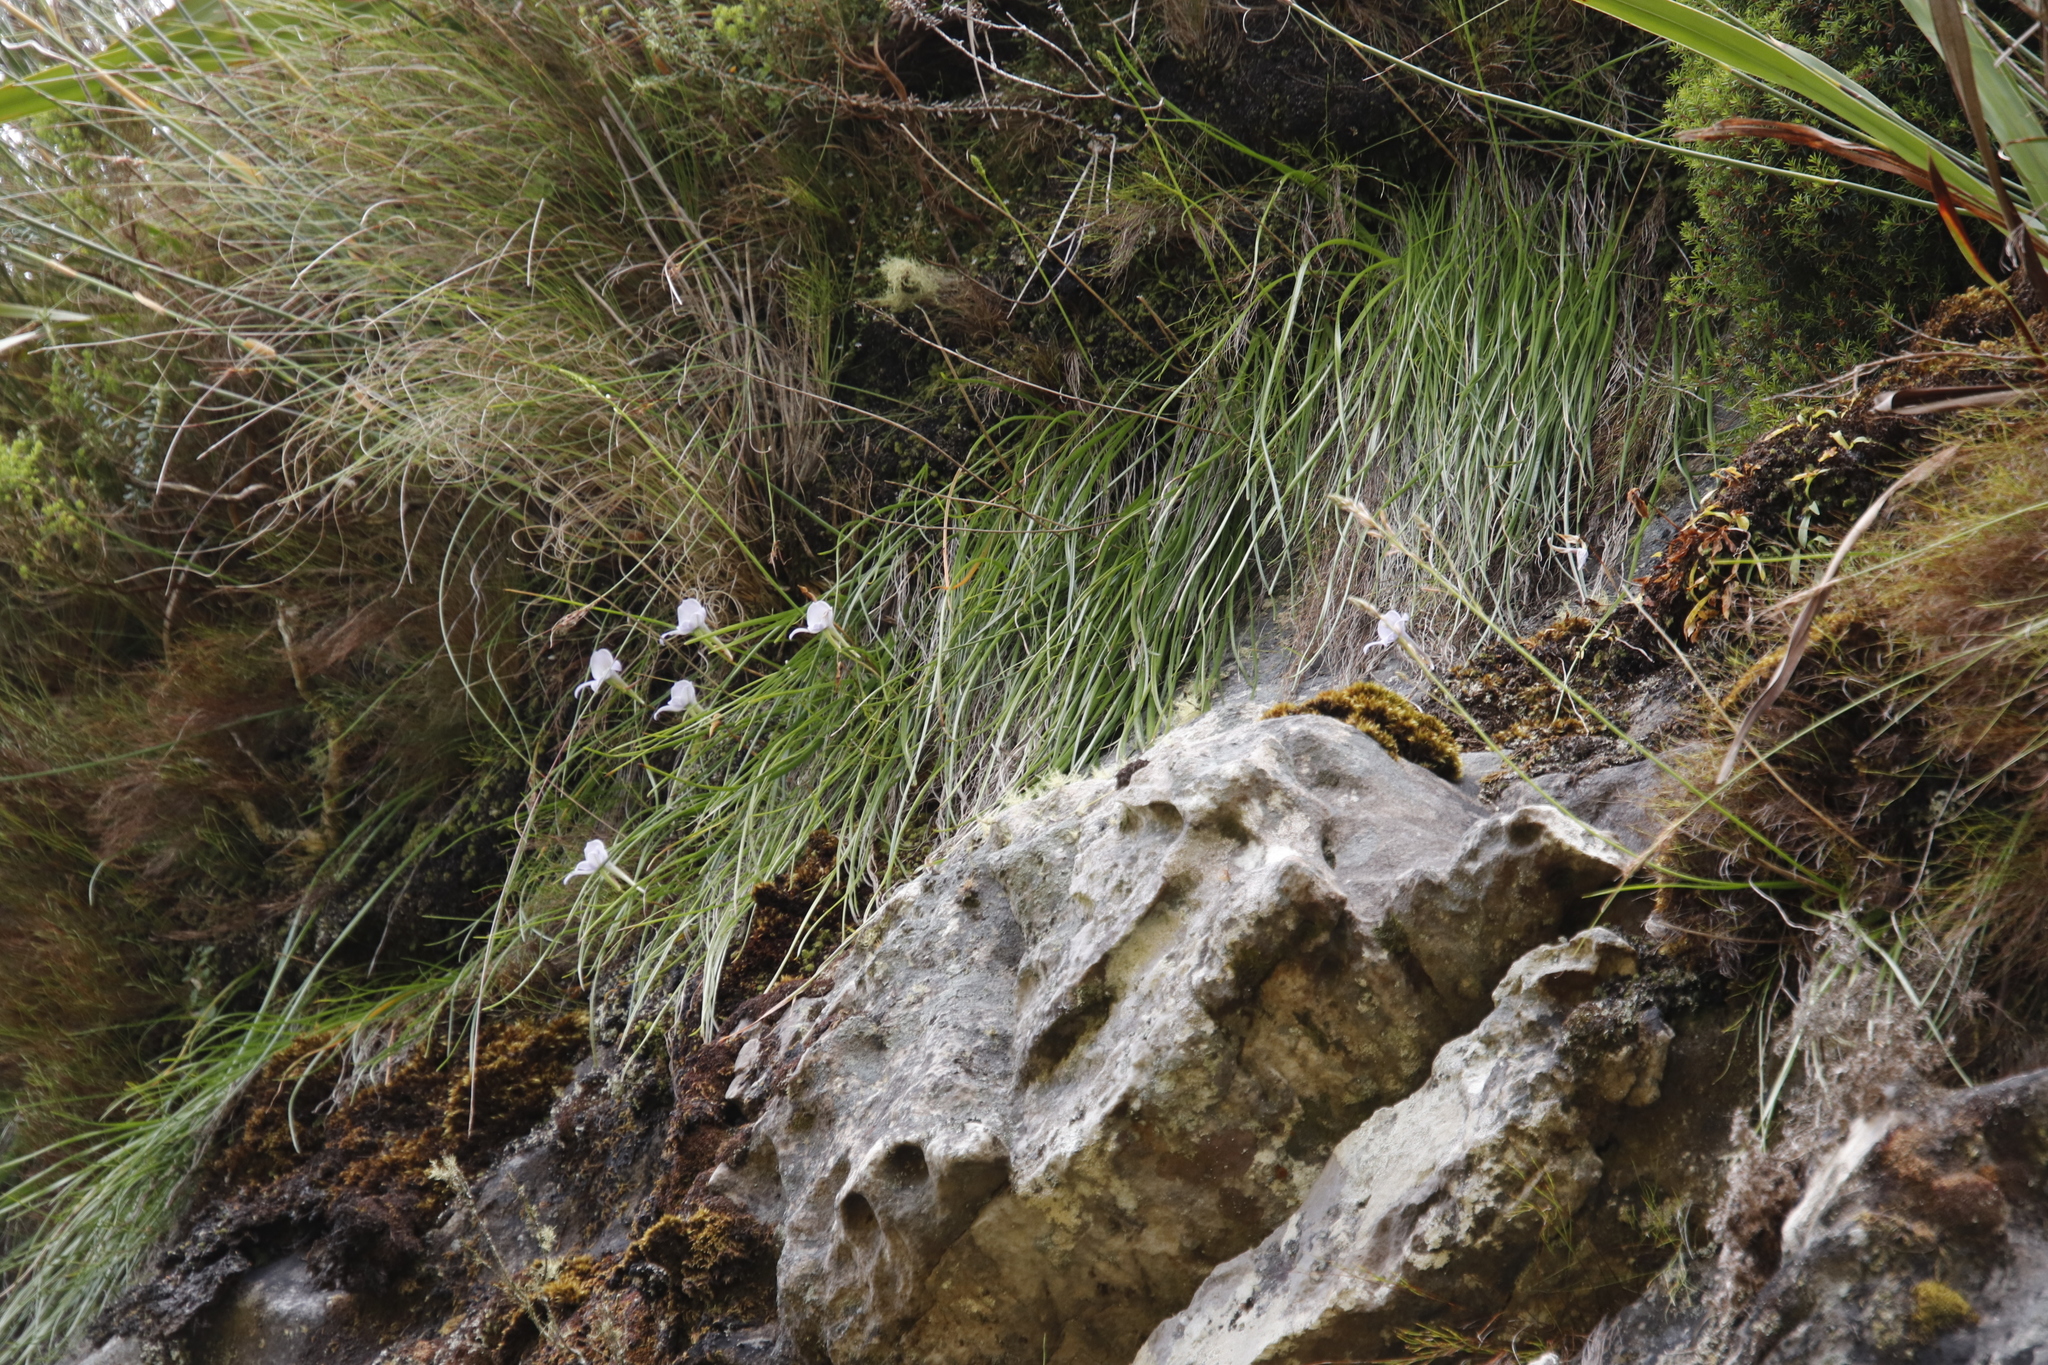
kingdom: Plantae
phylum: Tracheophyta
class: Liliopsida
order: Asparagales
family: Orchidaceae
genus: Disa
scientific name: Disa longicornu
